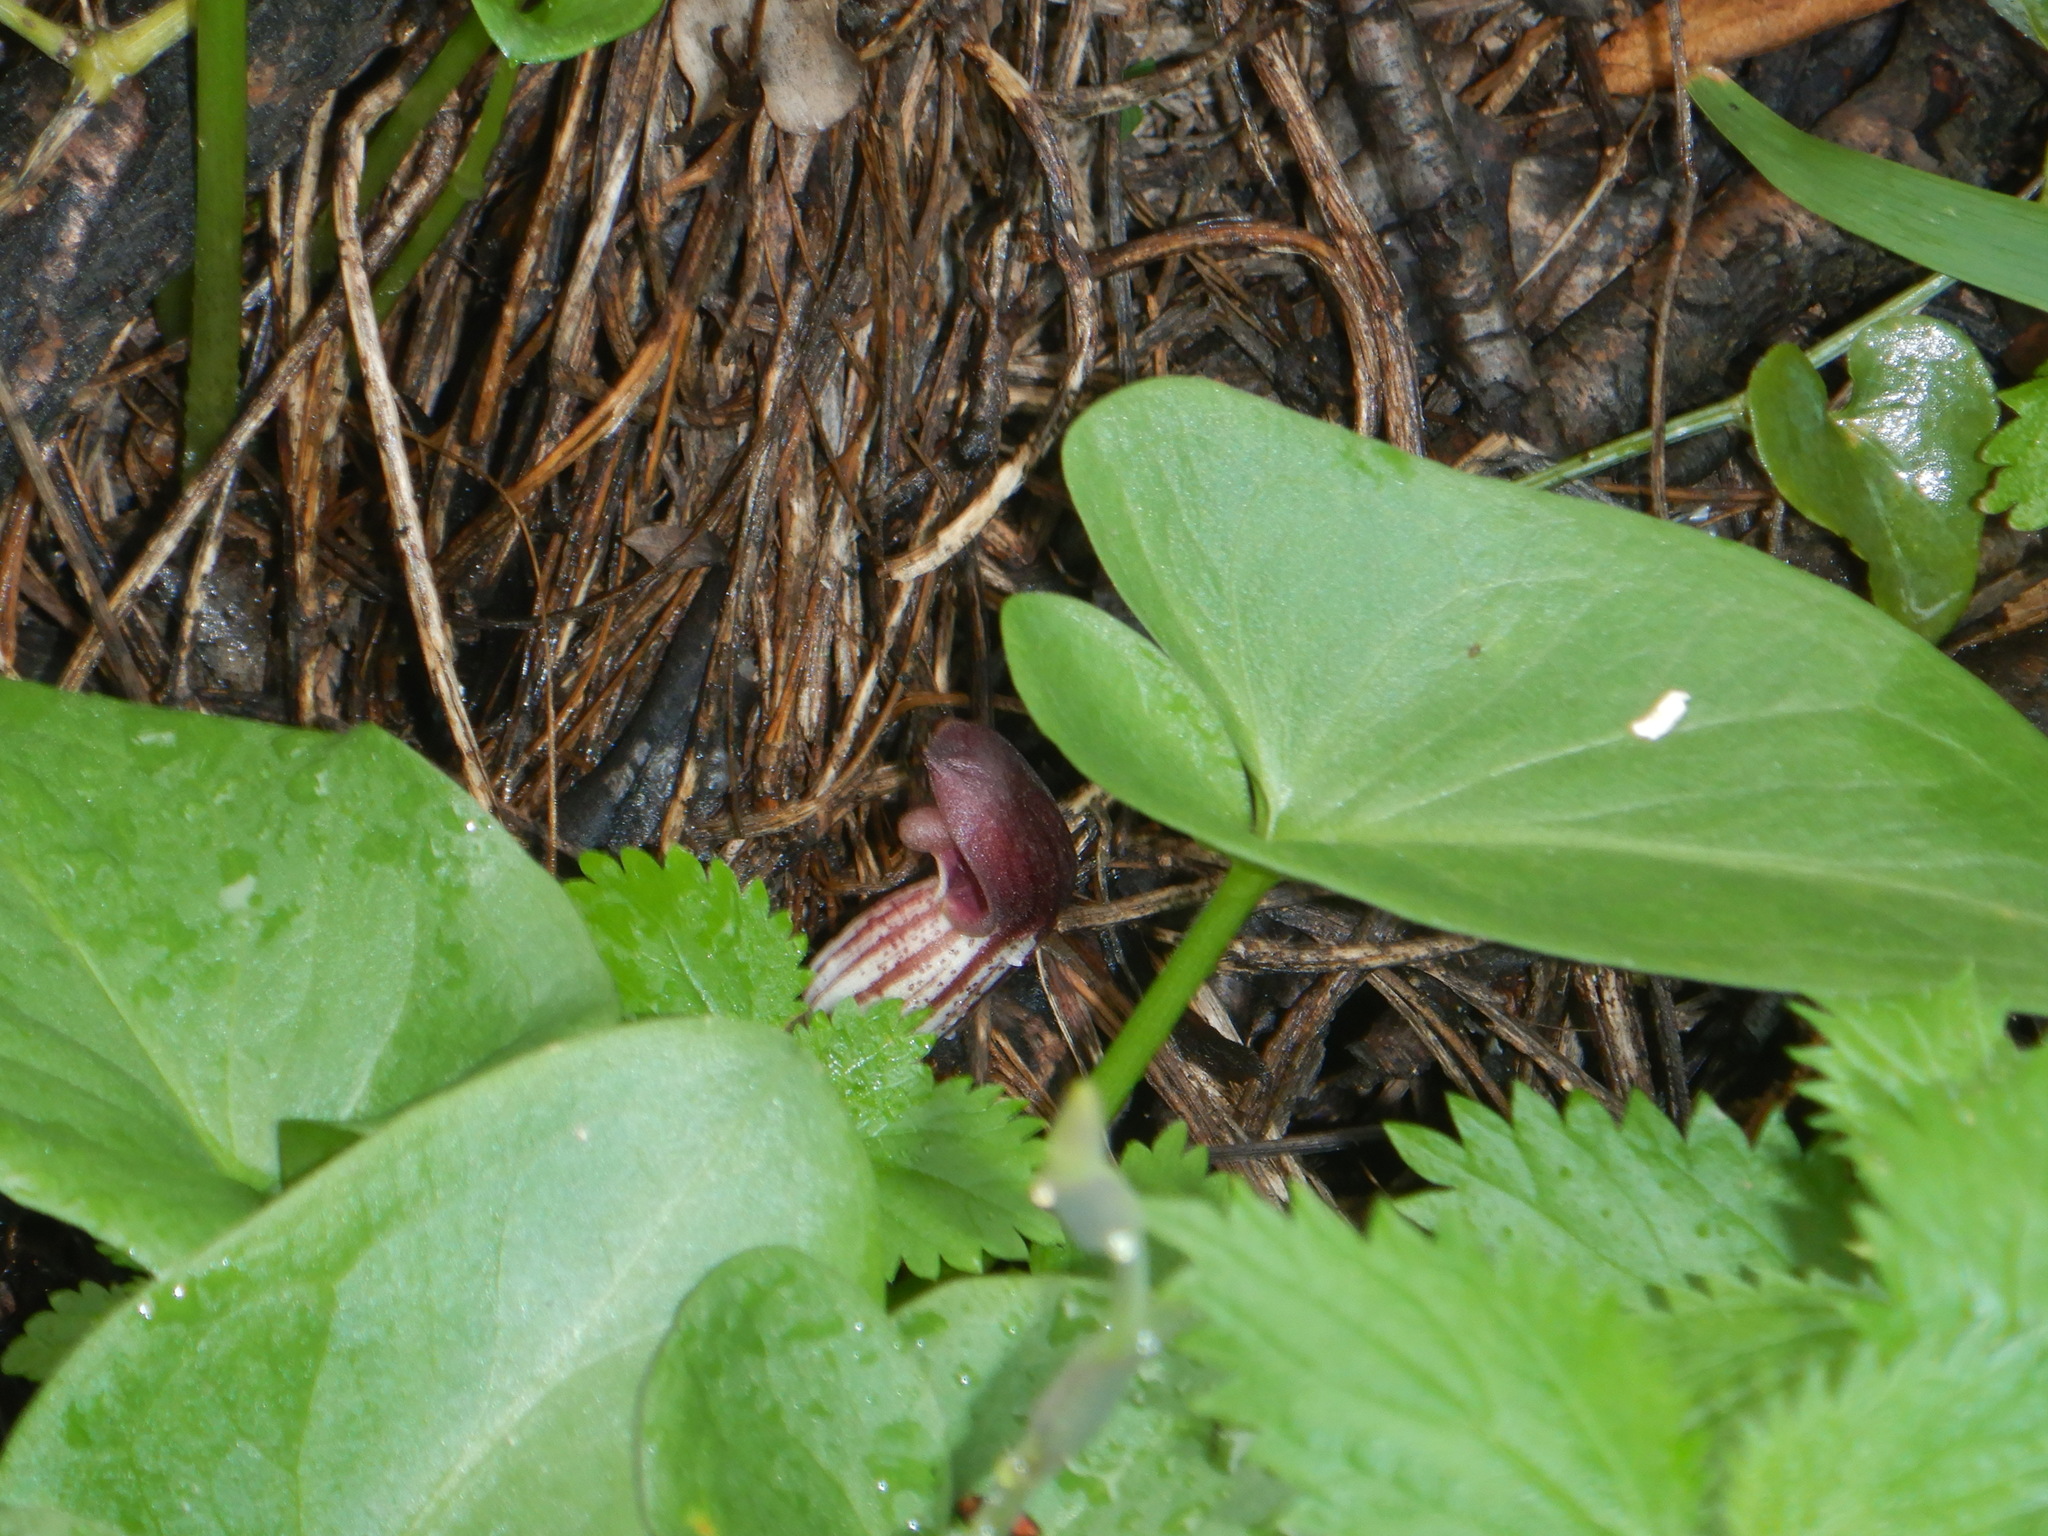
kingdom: Plantae
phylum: Tracheophyta
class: Liliopsida
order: Alismatales
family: Araceae
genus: Arisarum
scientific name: Arisarum simorrhinum
